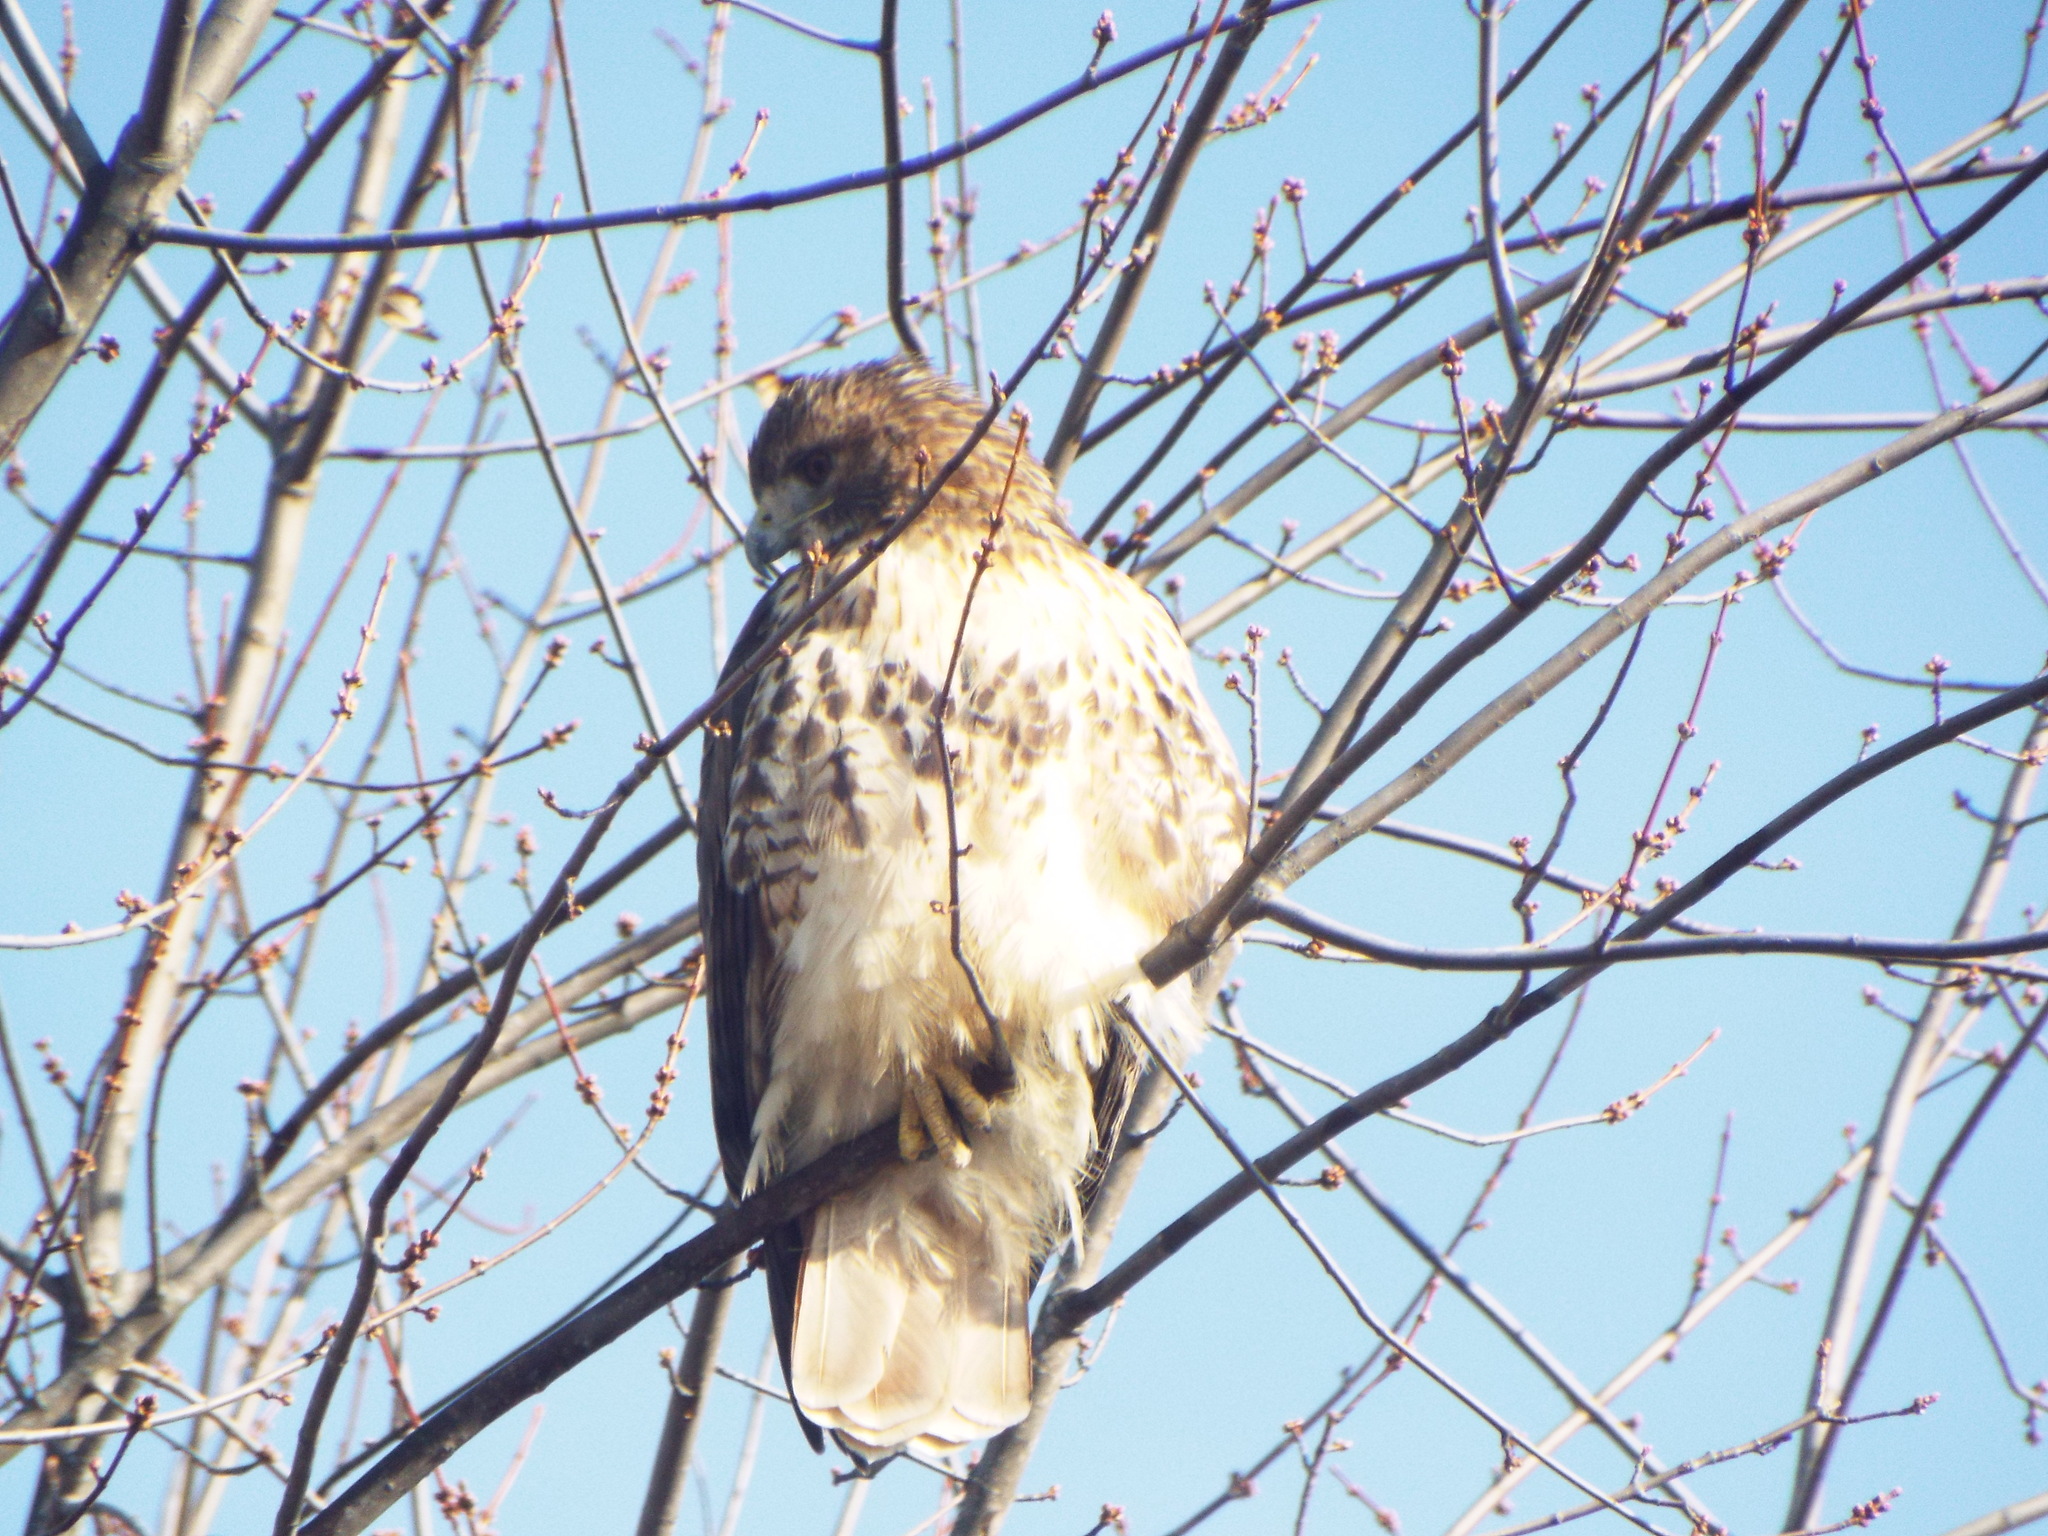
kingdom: Animalia
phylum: Chordata
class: Aves
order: Accipitriformes
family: Accipitridae
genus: Buteo
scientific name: Buteo jamaicensis
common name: Red-tailed hawk
